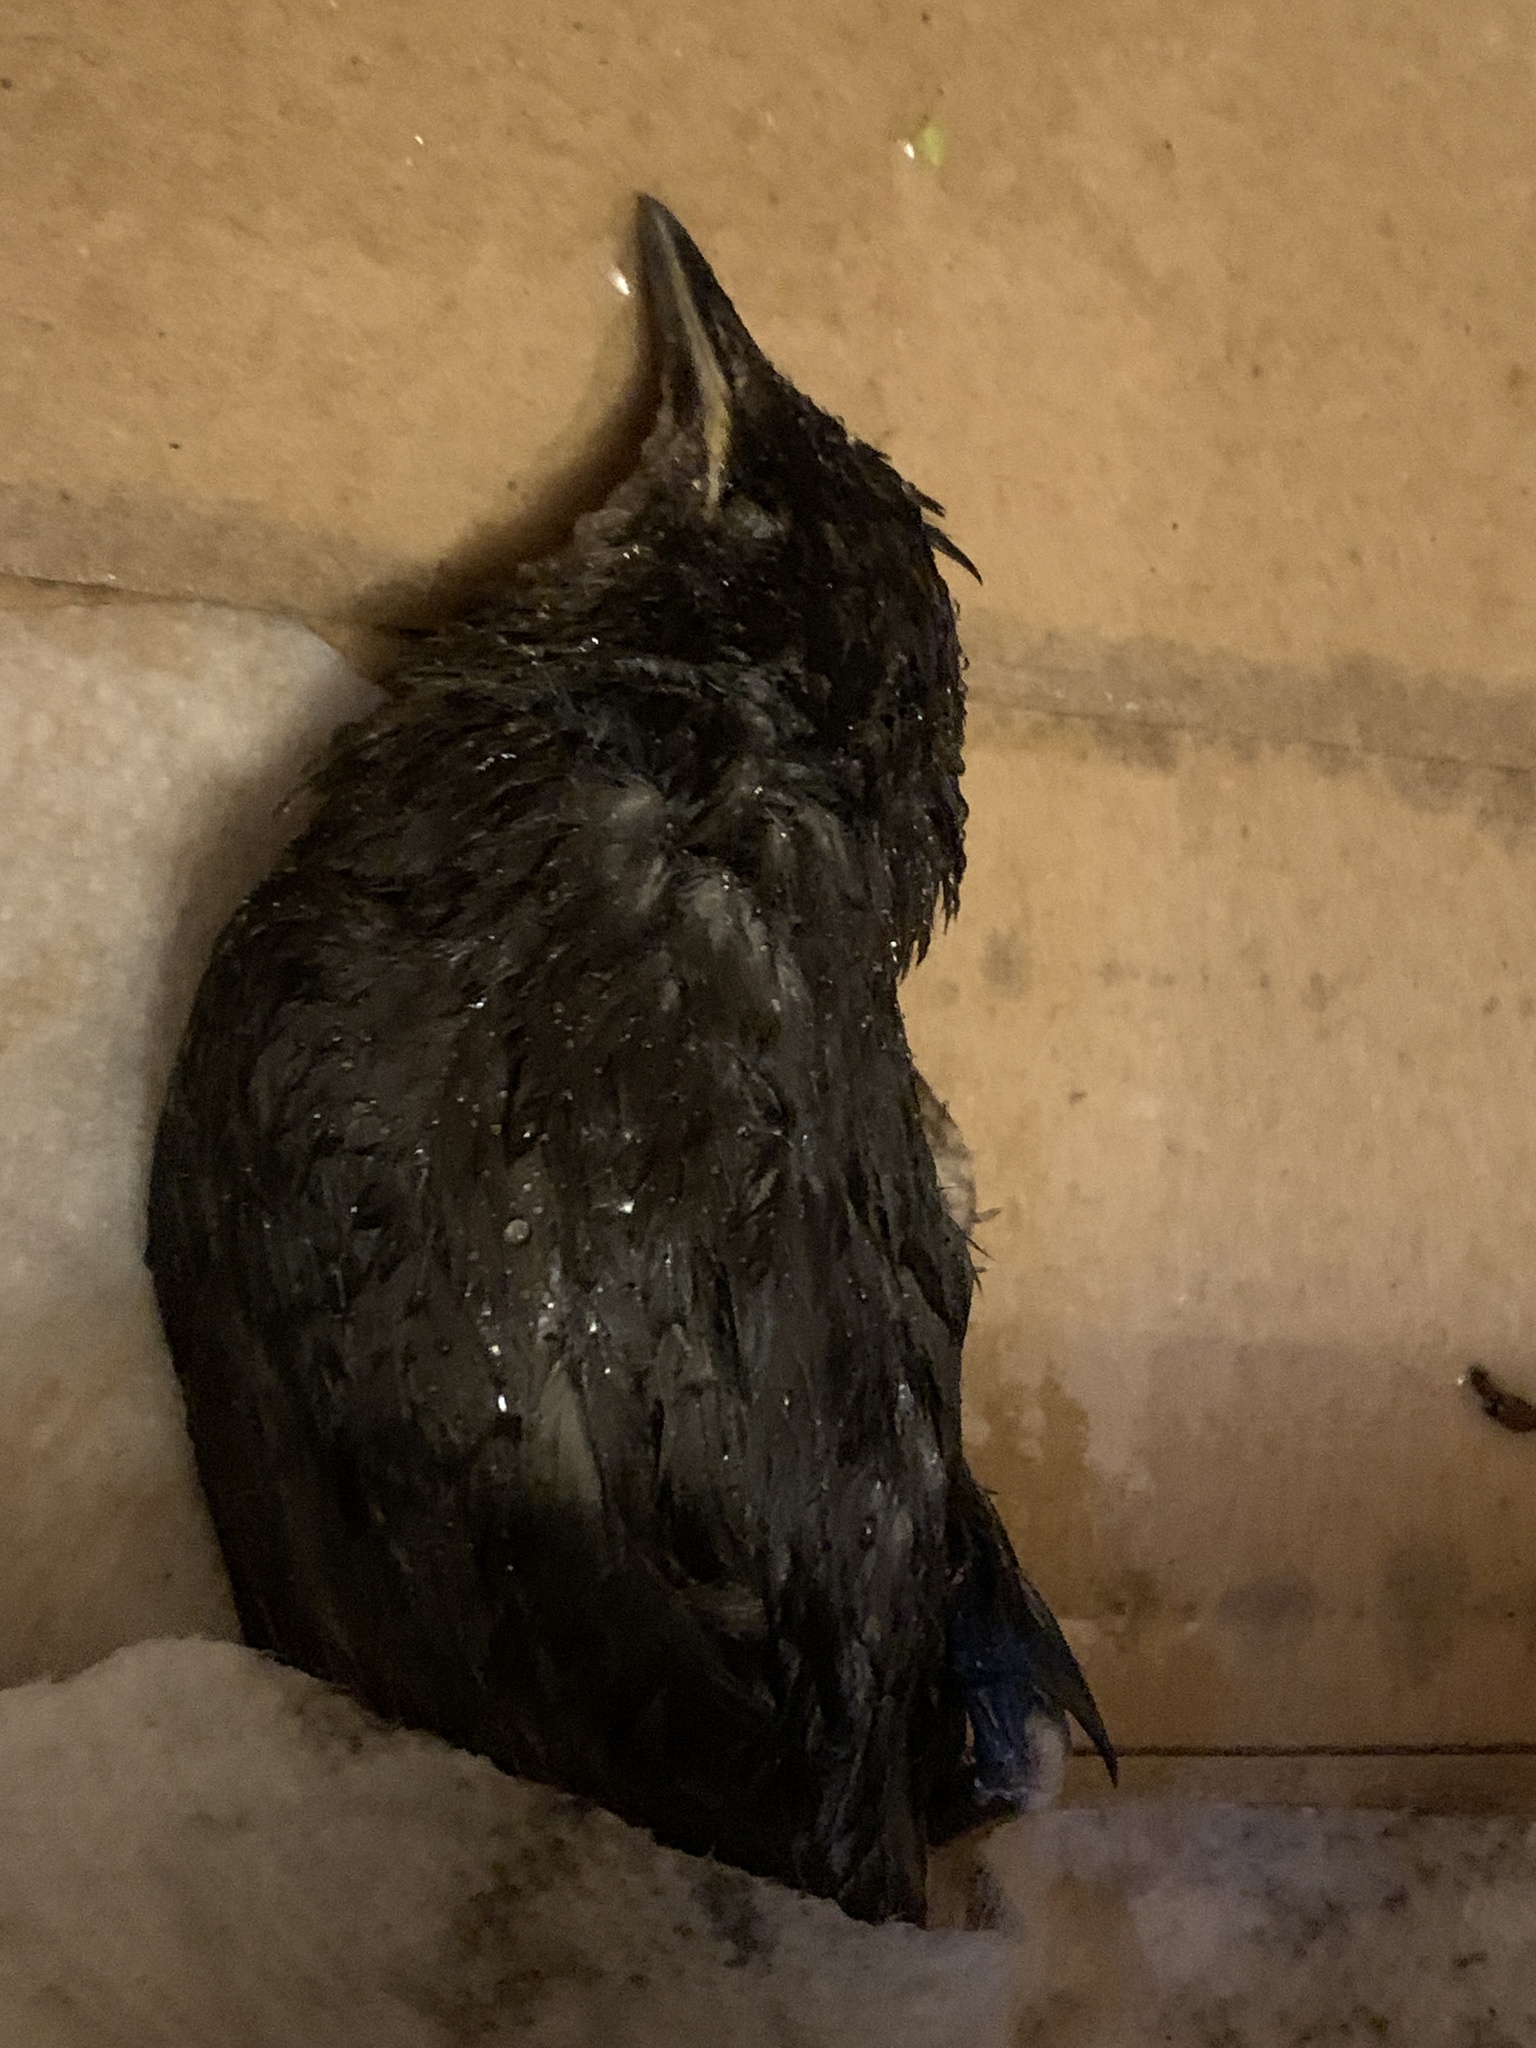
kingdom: Animalia
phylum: Chordata
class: Aves
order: Passeriformes
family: Sturnidae
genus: Sturnus
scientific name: Sturnus vulgaris
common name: Common starling
